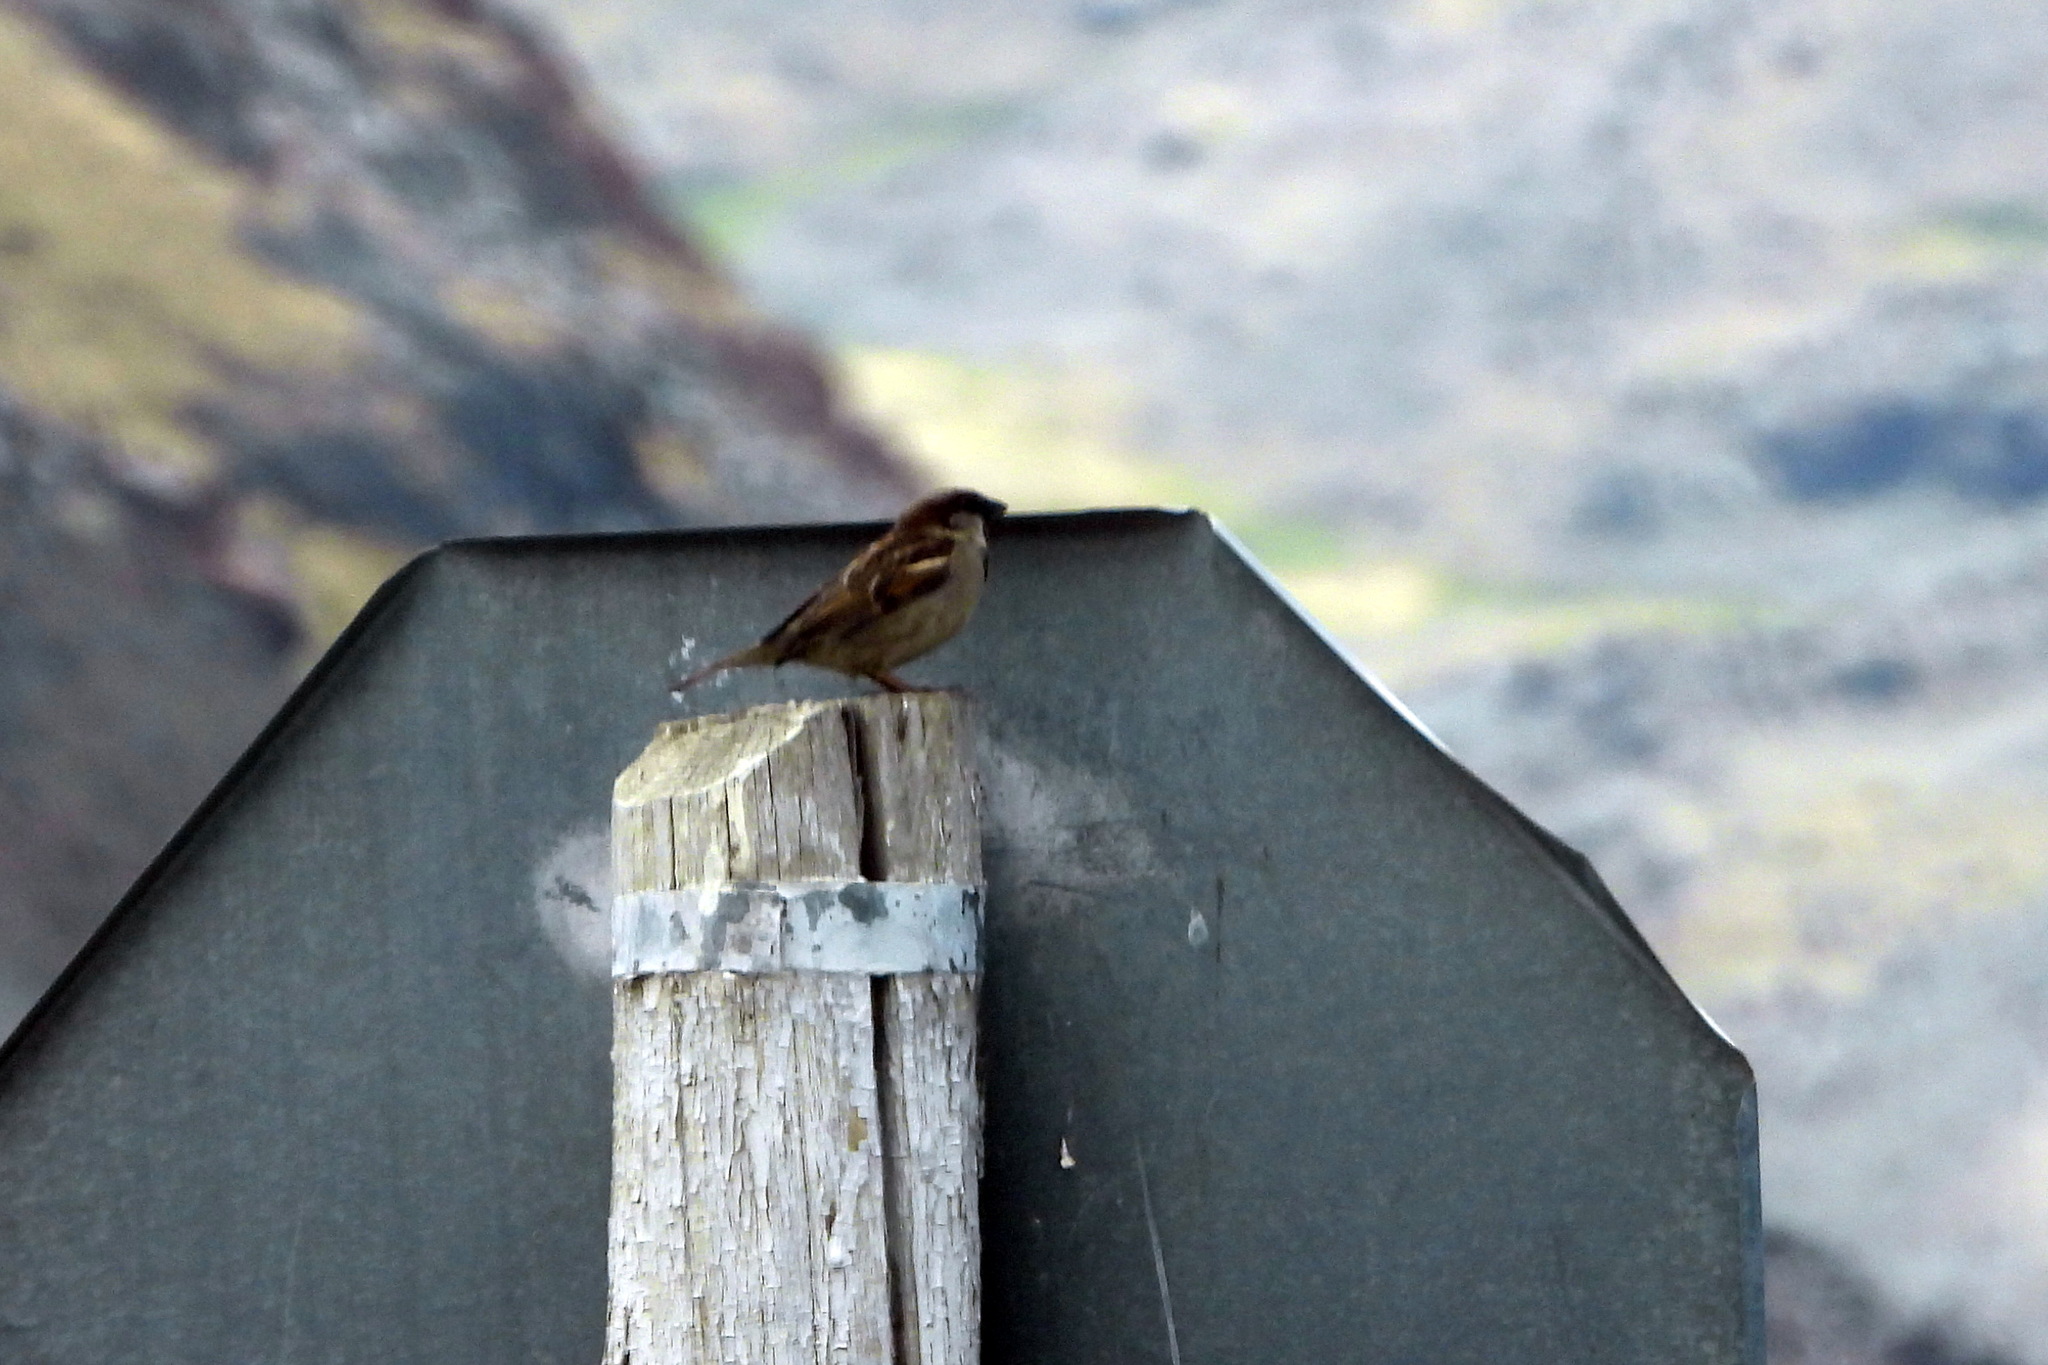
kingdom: Animalia
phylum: Chordata
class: Aves
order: Passeriformes
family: Passeridae
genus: Passer
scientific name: Passer domesticus
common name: House sparrow
